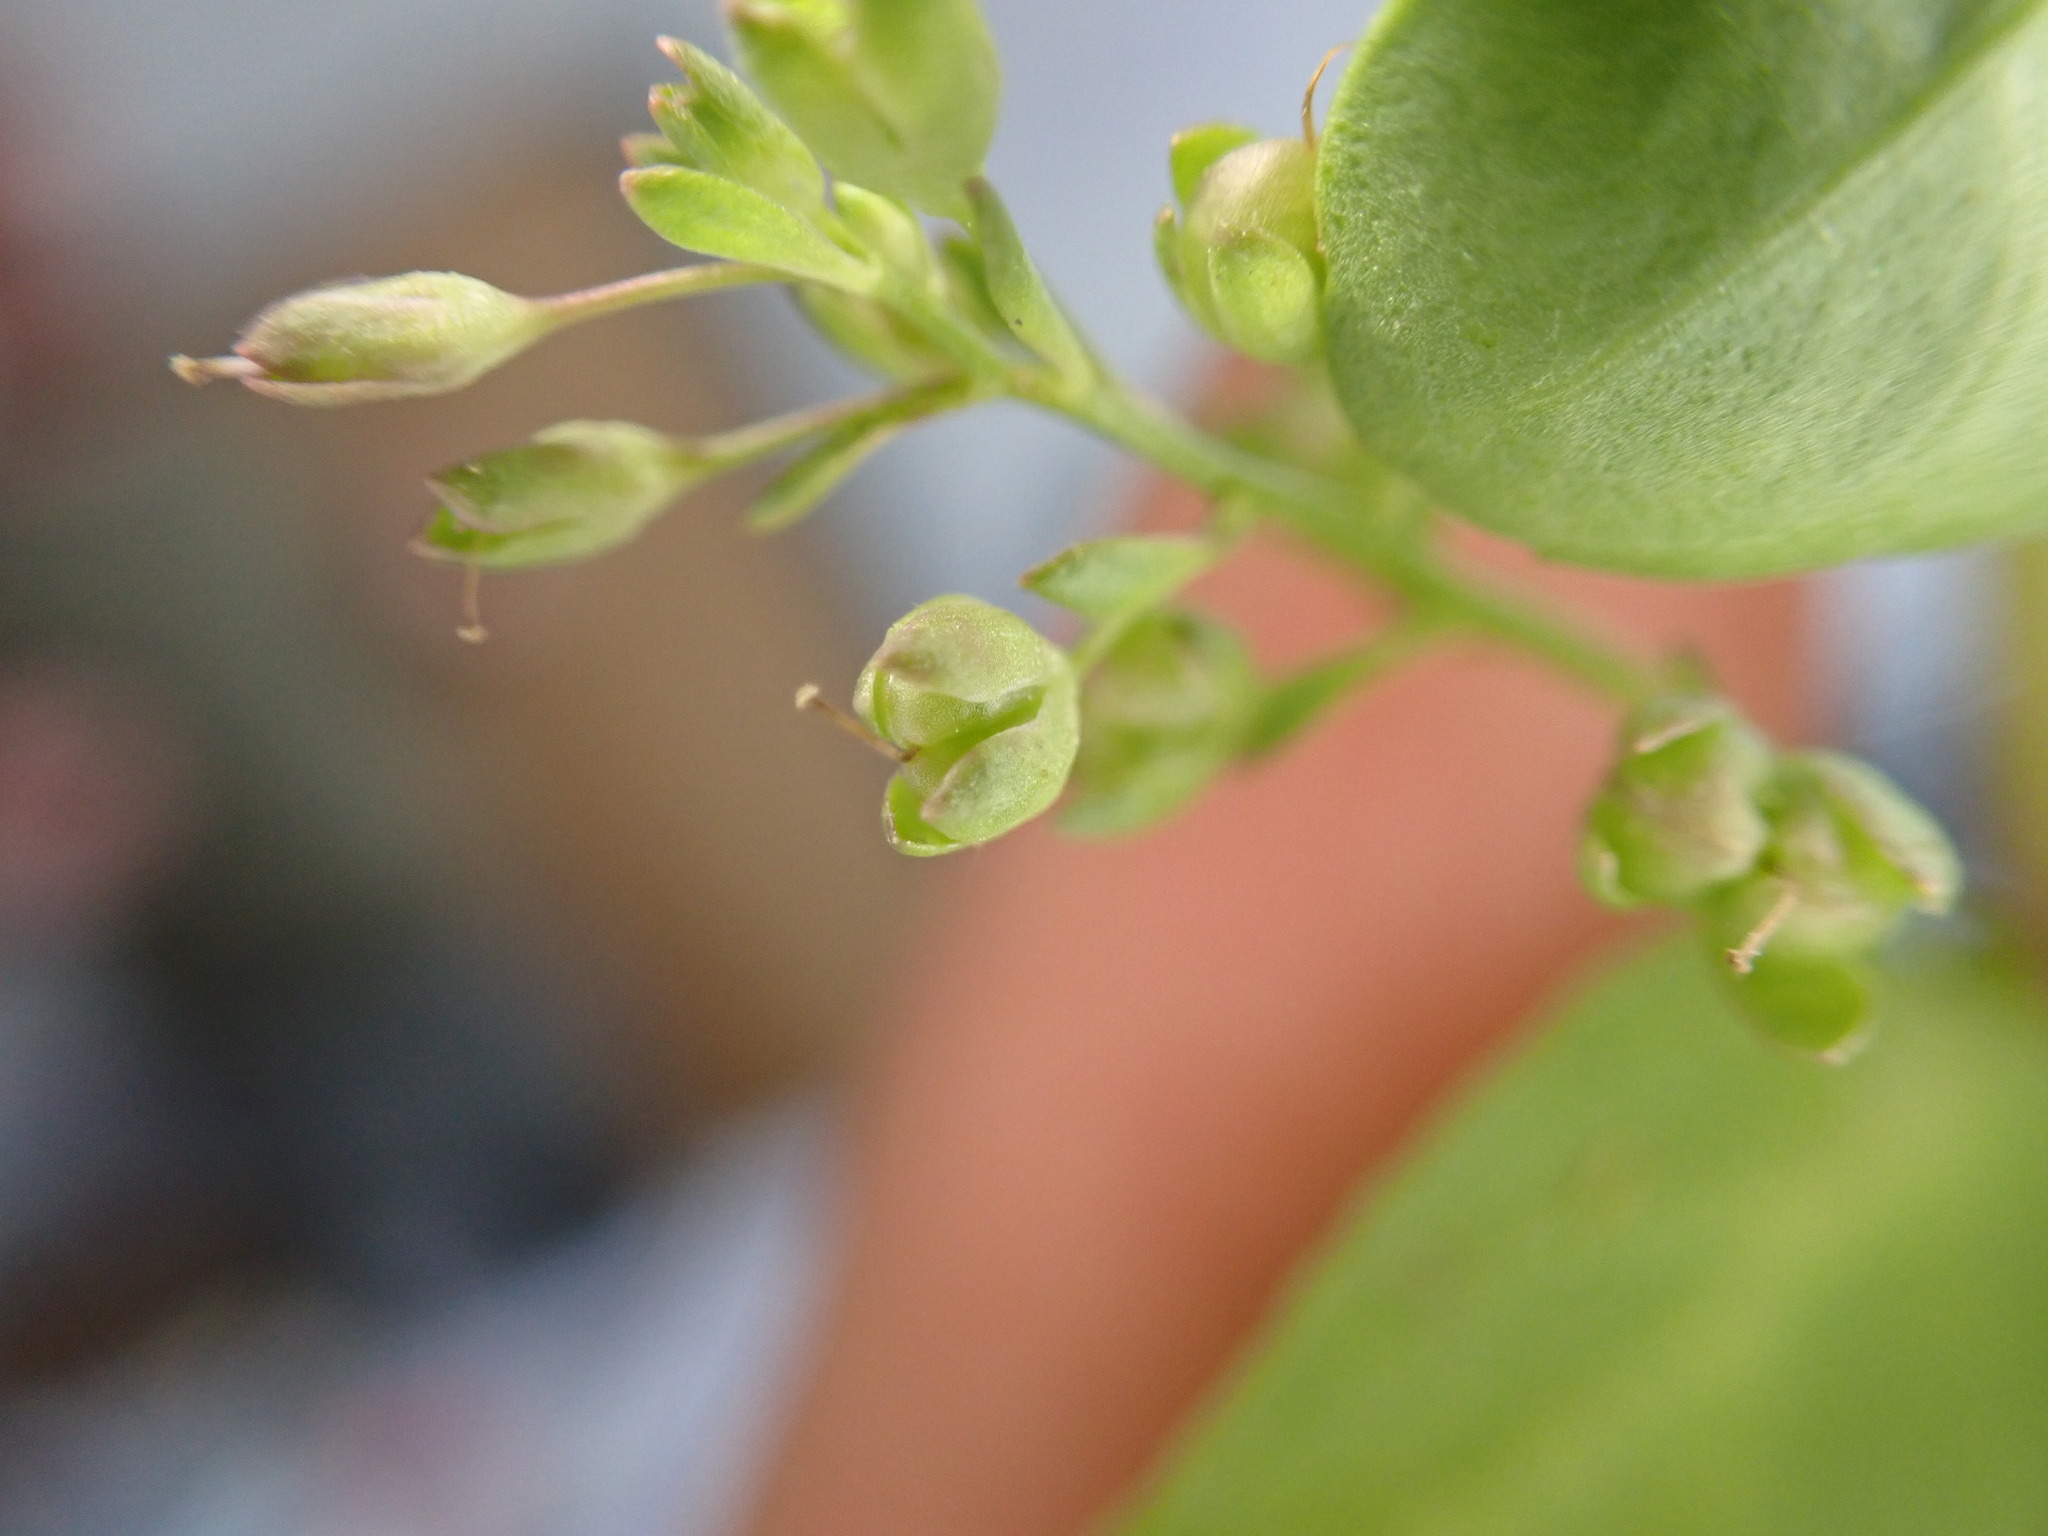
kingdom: Plantae
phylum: Tracheophyta
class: Magnoliopsida
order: Lamiales
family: Plantaginaceae
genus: Veronica
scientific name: Veronica beccabunga
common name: Brooklime
